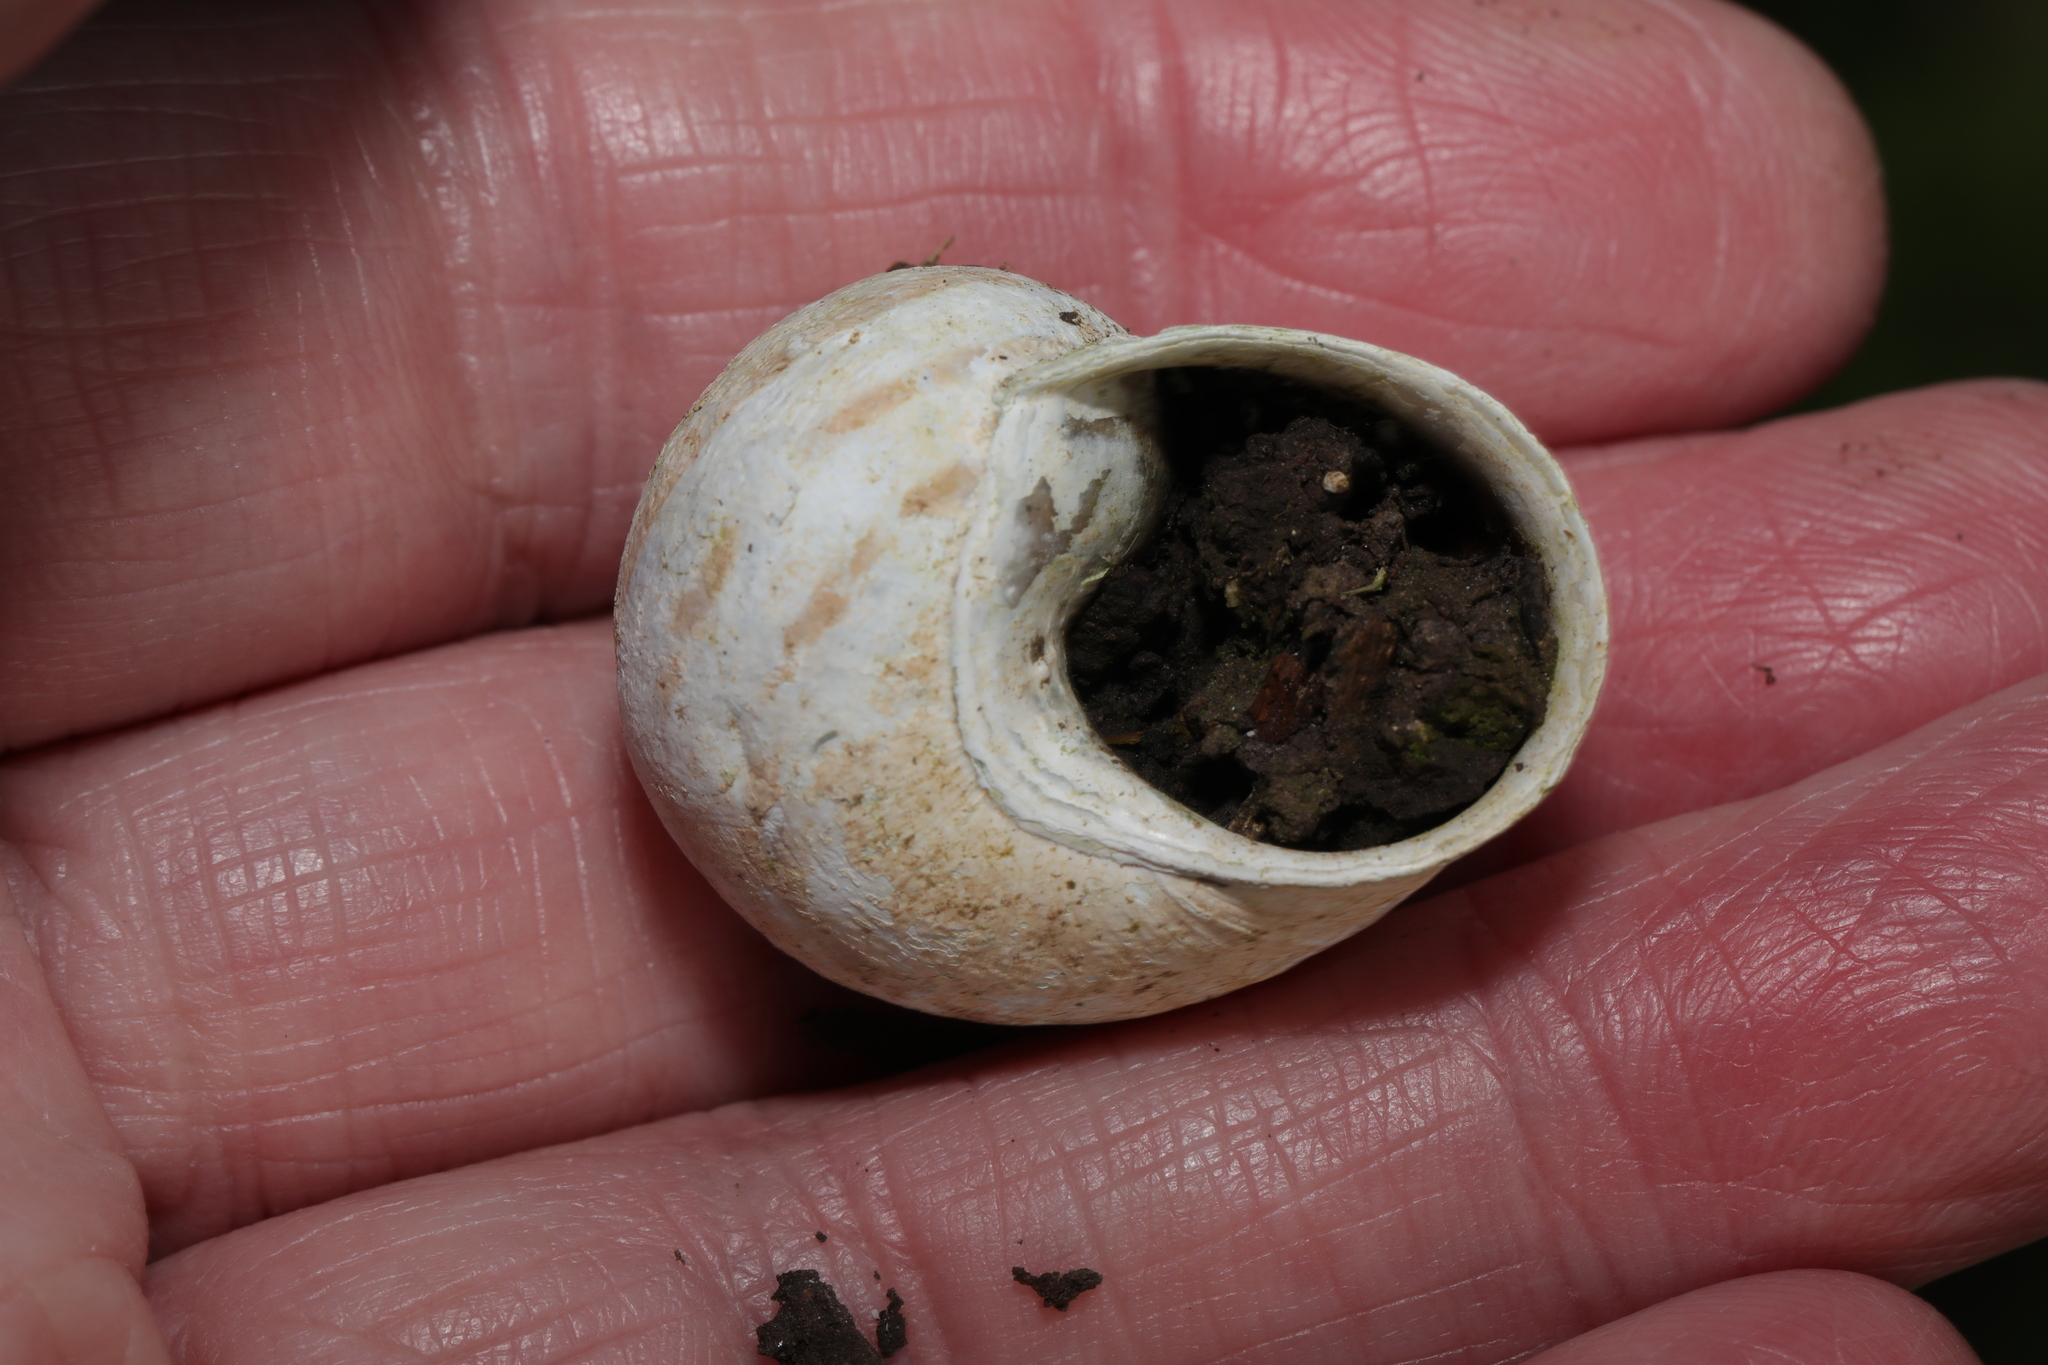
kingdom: Animalia
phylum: Mollusca
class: Gastropoda
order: Stylommatophora
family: Helicidae
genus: Cornu
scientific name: Cornu aspersum
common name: Brown garden snail
